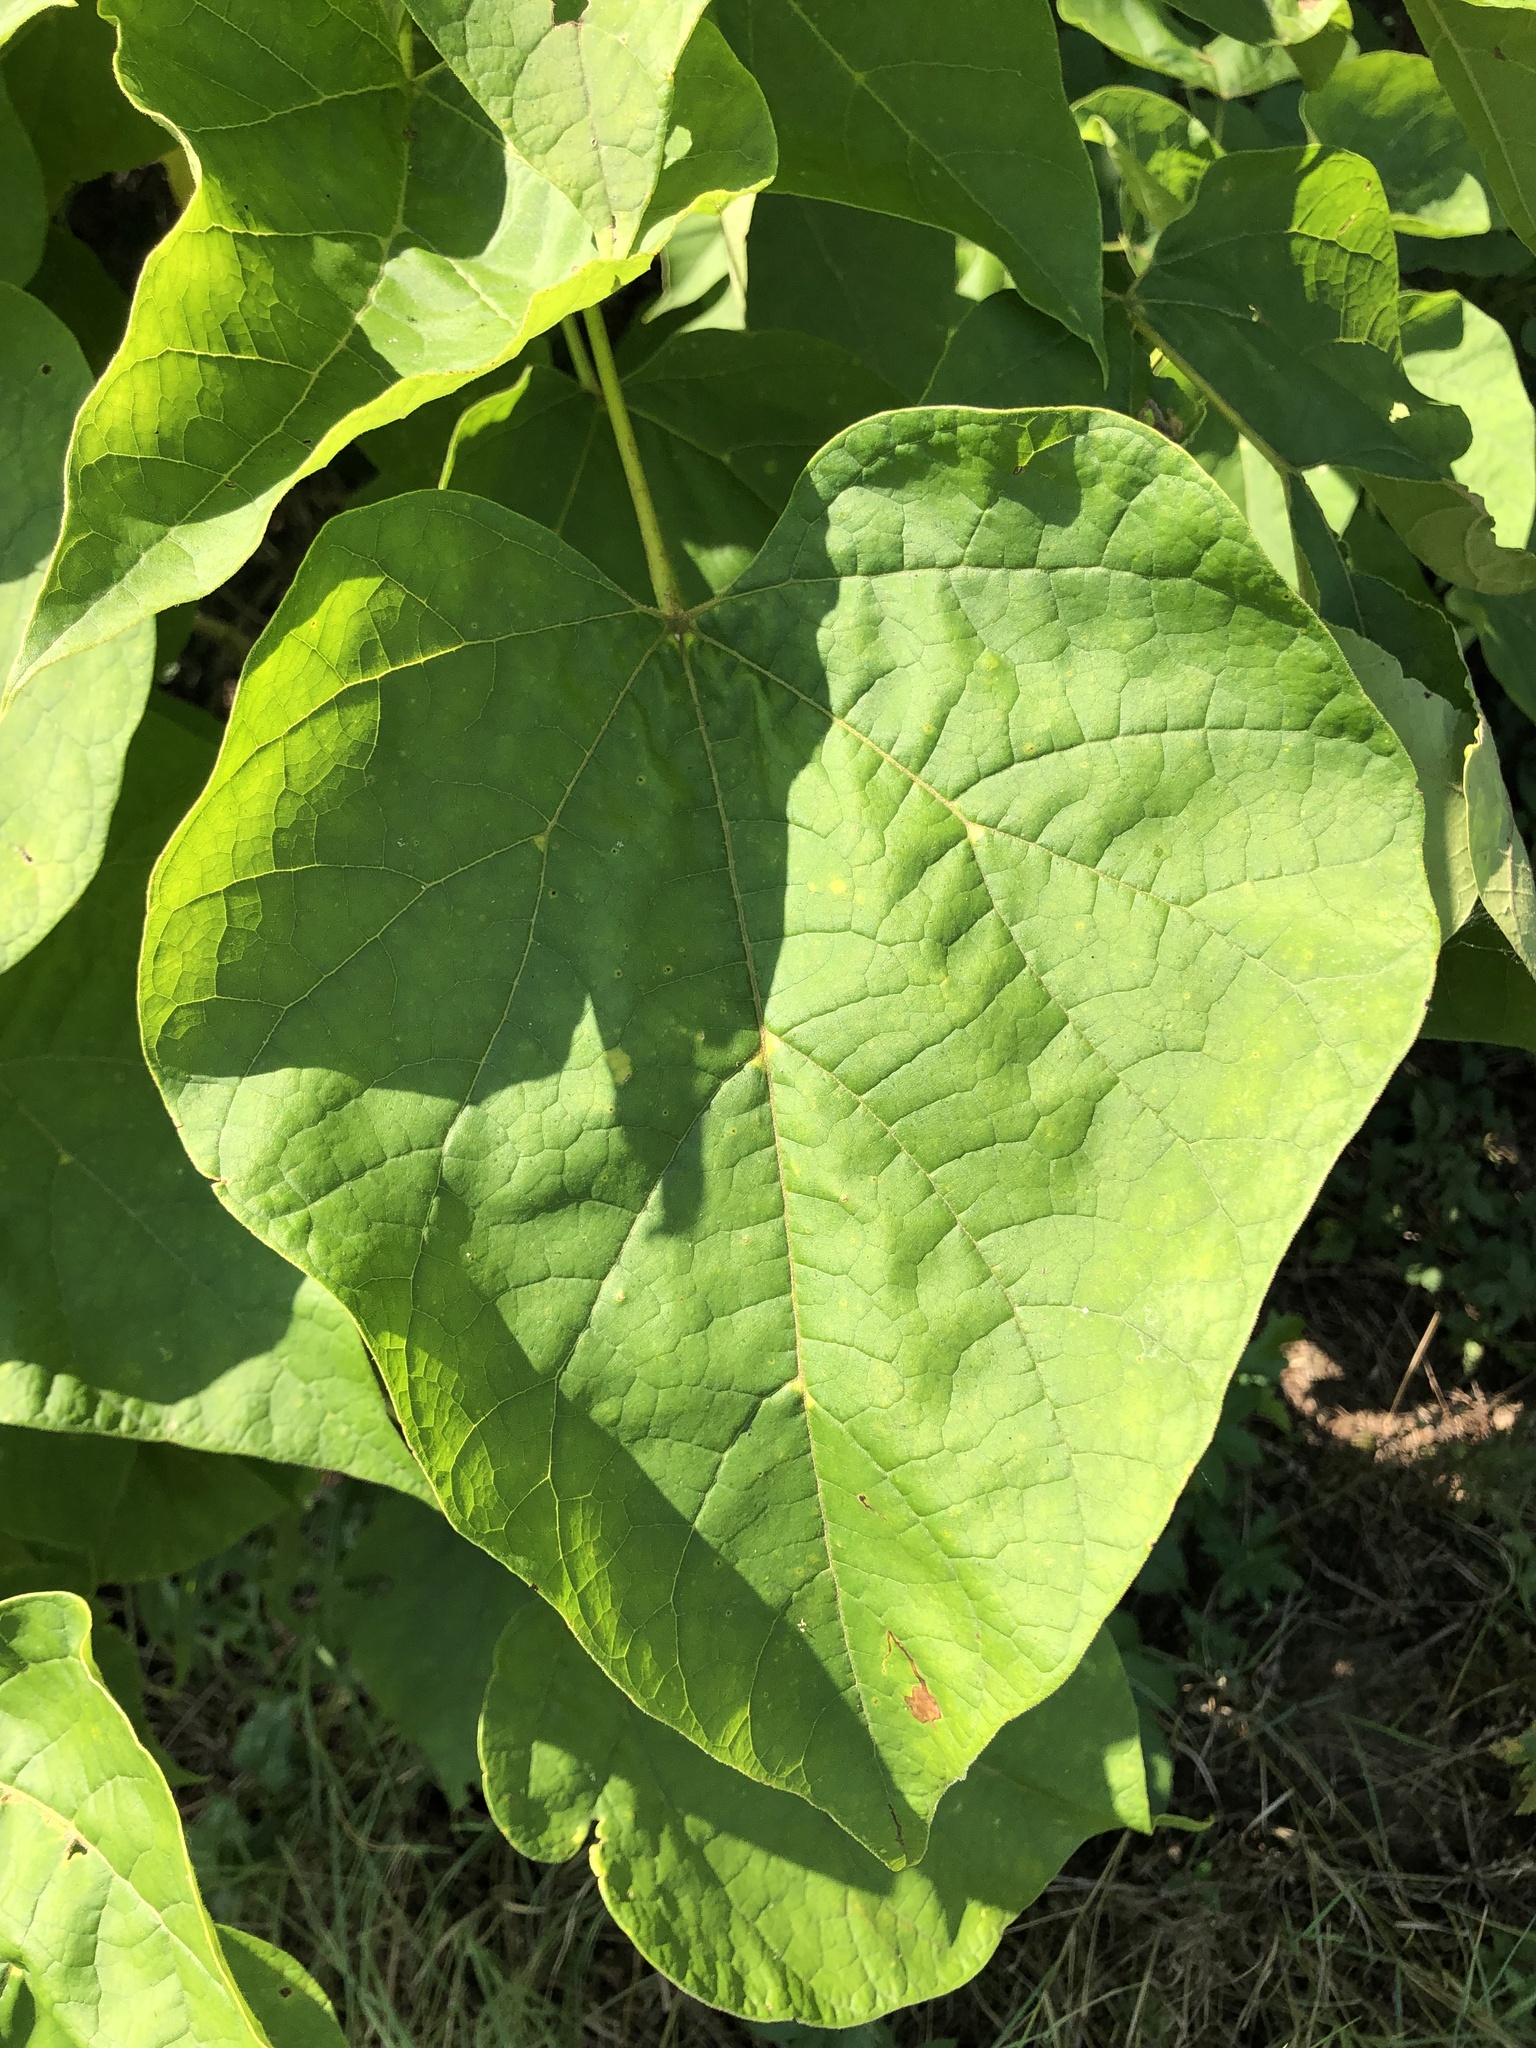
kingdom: Plantae
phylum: Tracheophyta
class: Magnoliopsida
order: Lamiales
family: Bignoniaceae
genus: Catalpa
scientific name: Catalpa bignonioides
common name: Southern catalpa
